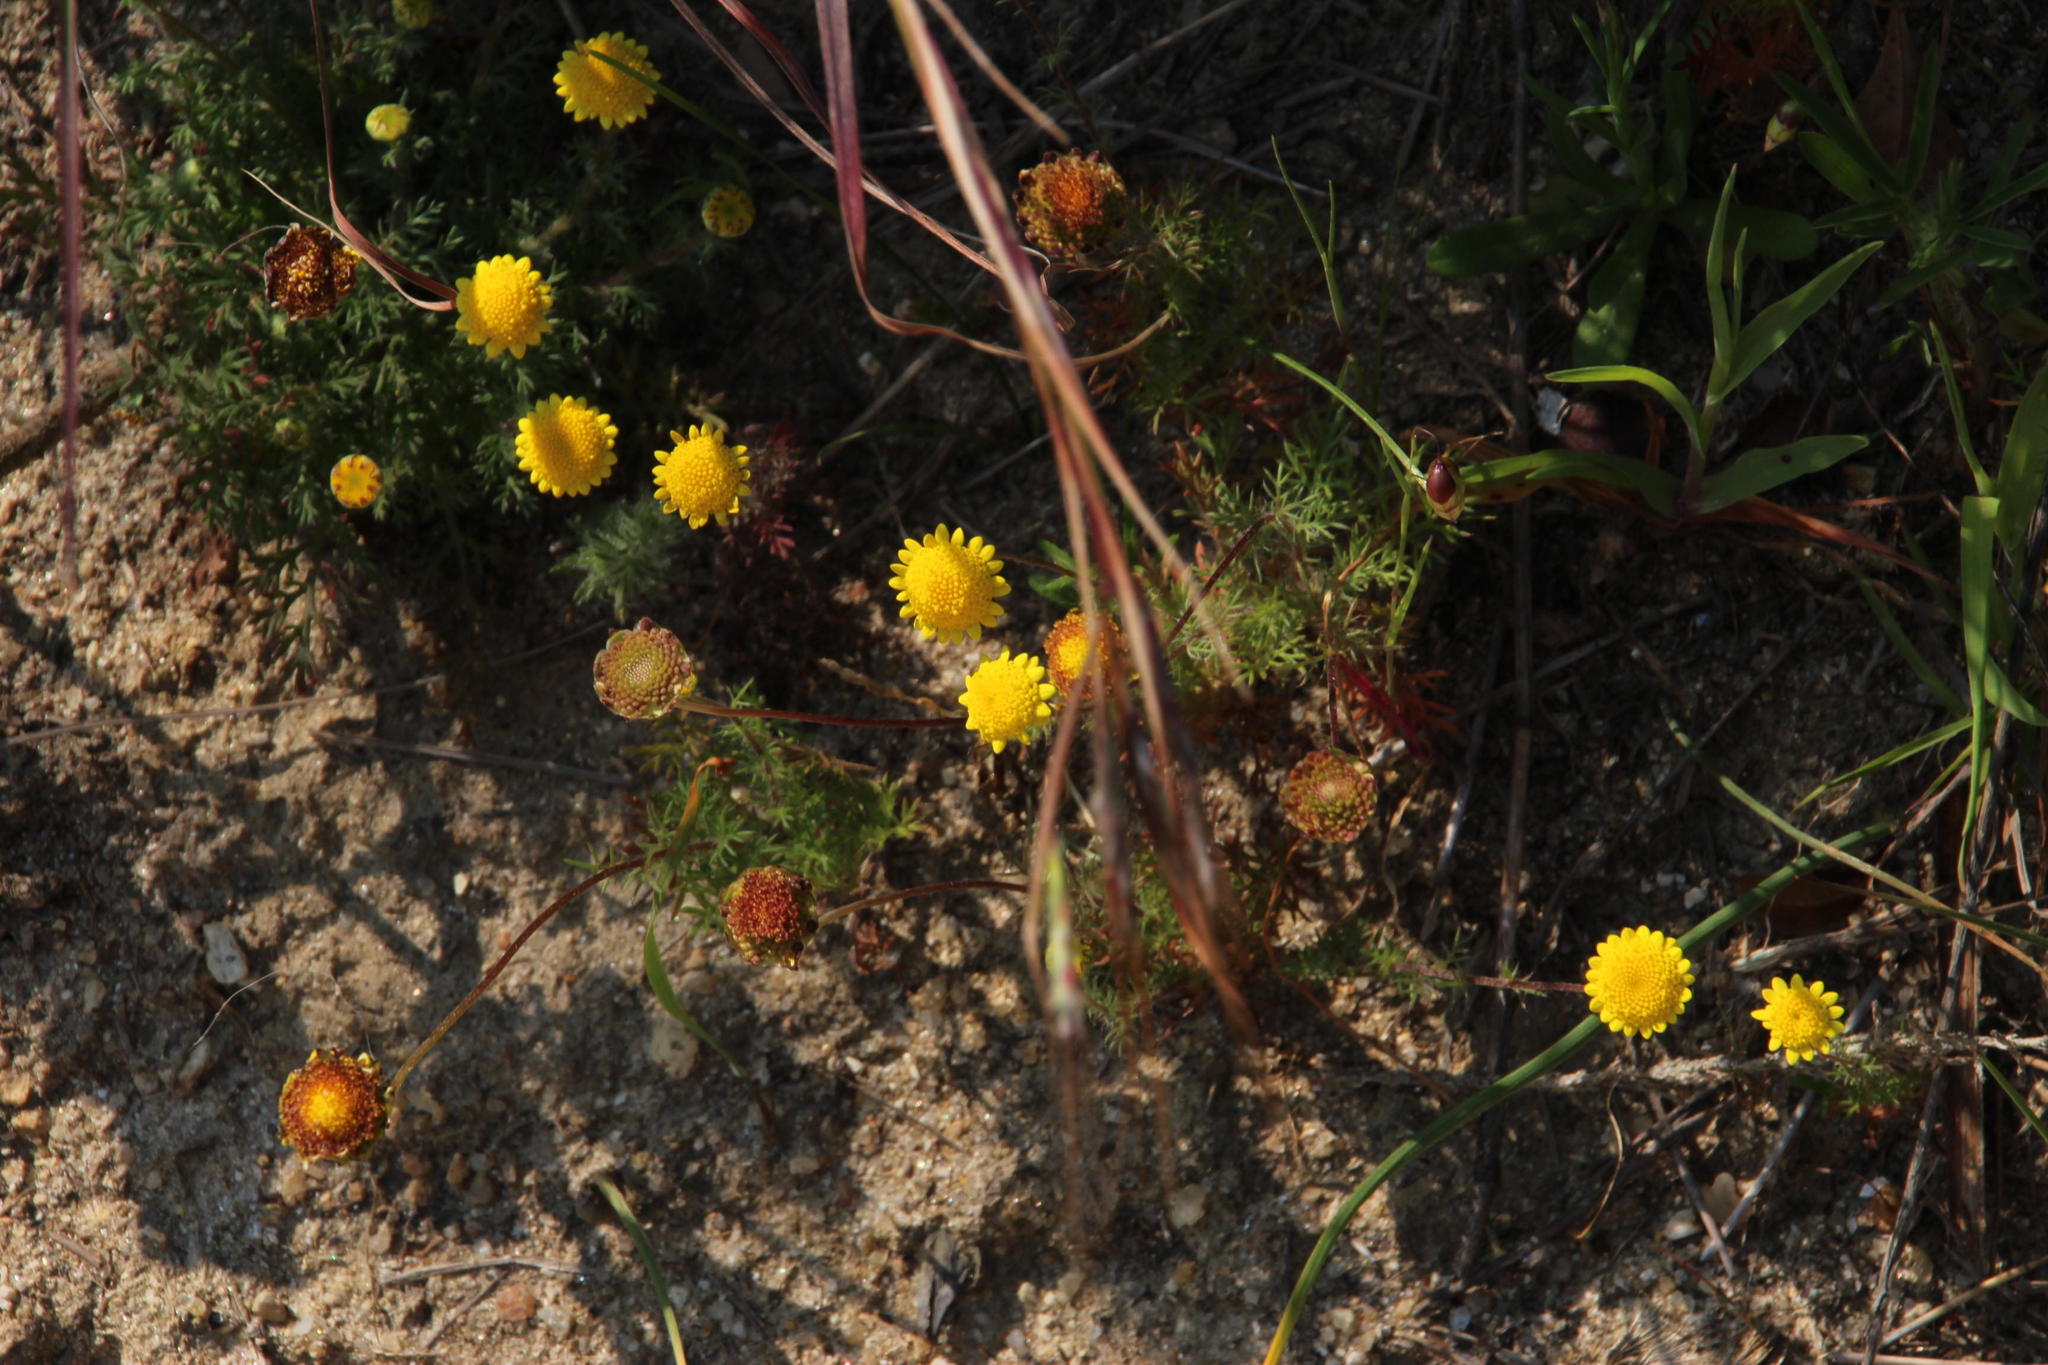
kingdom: Plantae
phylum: Tracheophyta
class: Magnoliopsida
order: Asterales
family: Asteraceae
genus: Cotula
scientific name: Cotula pruinosa
